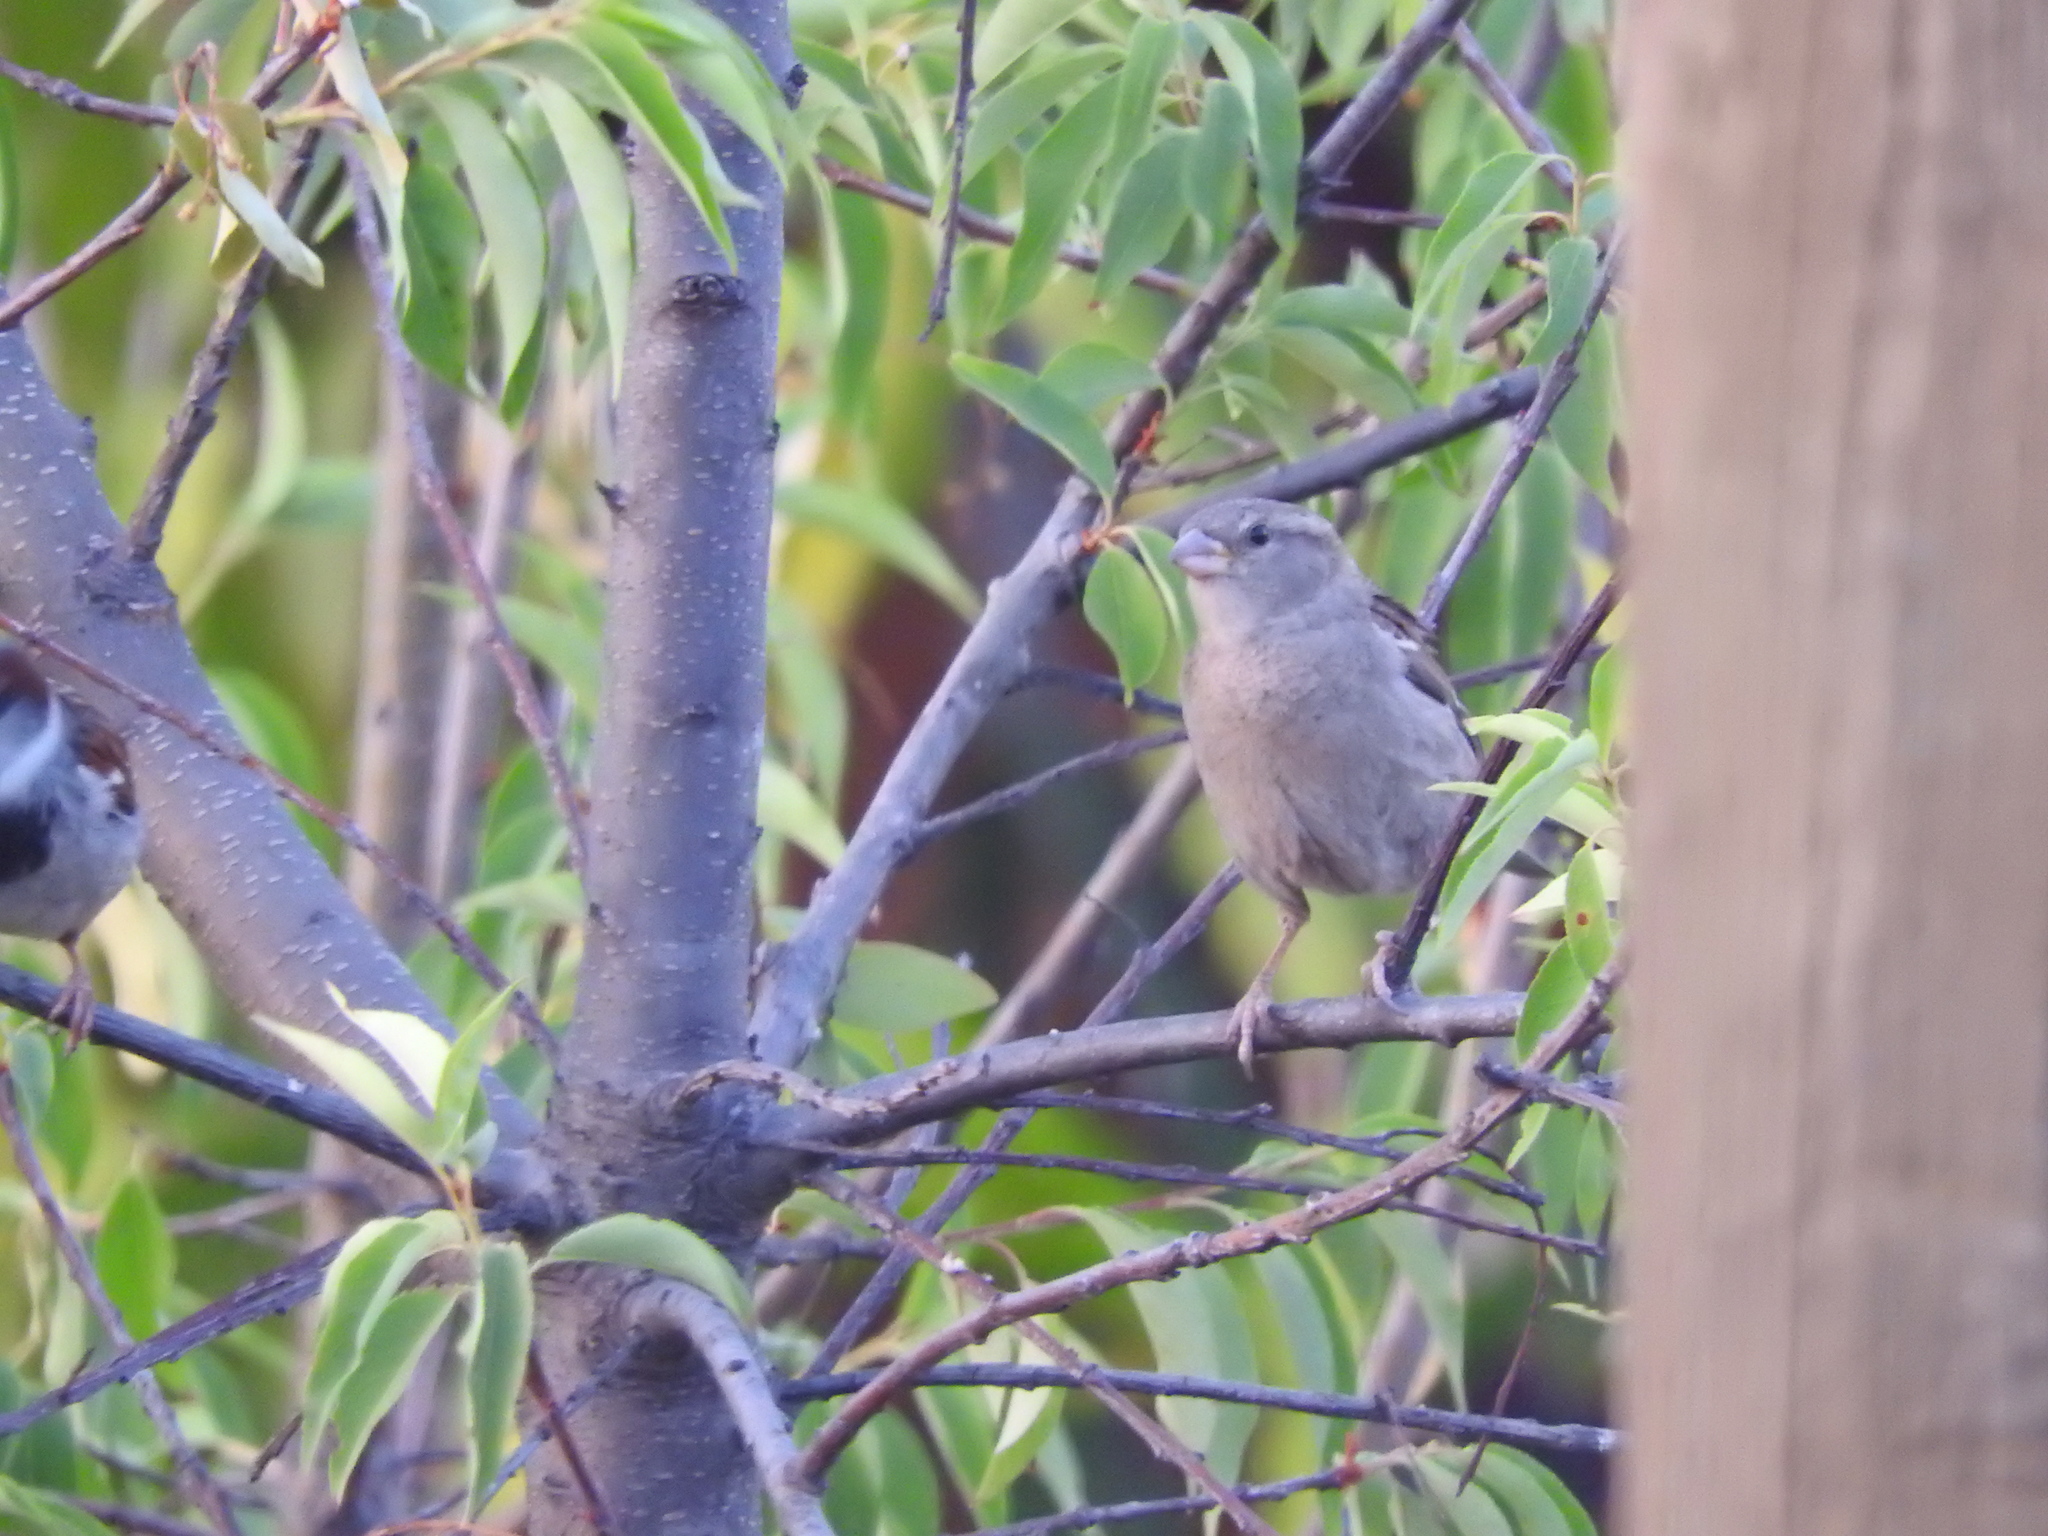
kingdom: Animalia
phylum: Chordata
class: Aves
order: Passeriformes
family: Passeridae
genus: Passer
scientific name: Passer domesticus
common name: House sparrow
